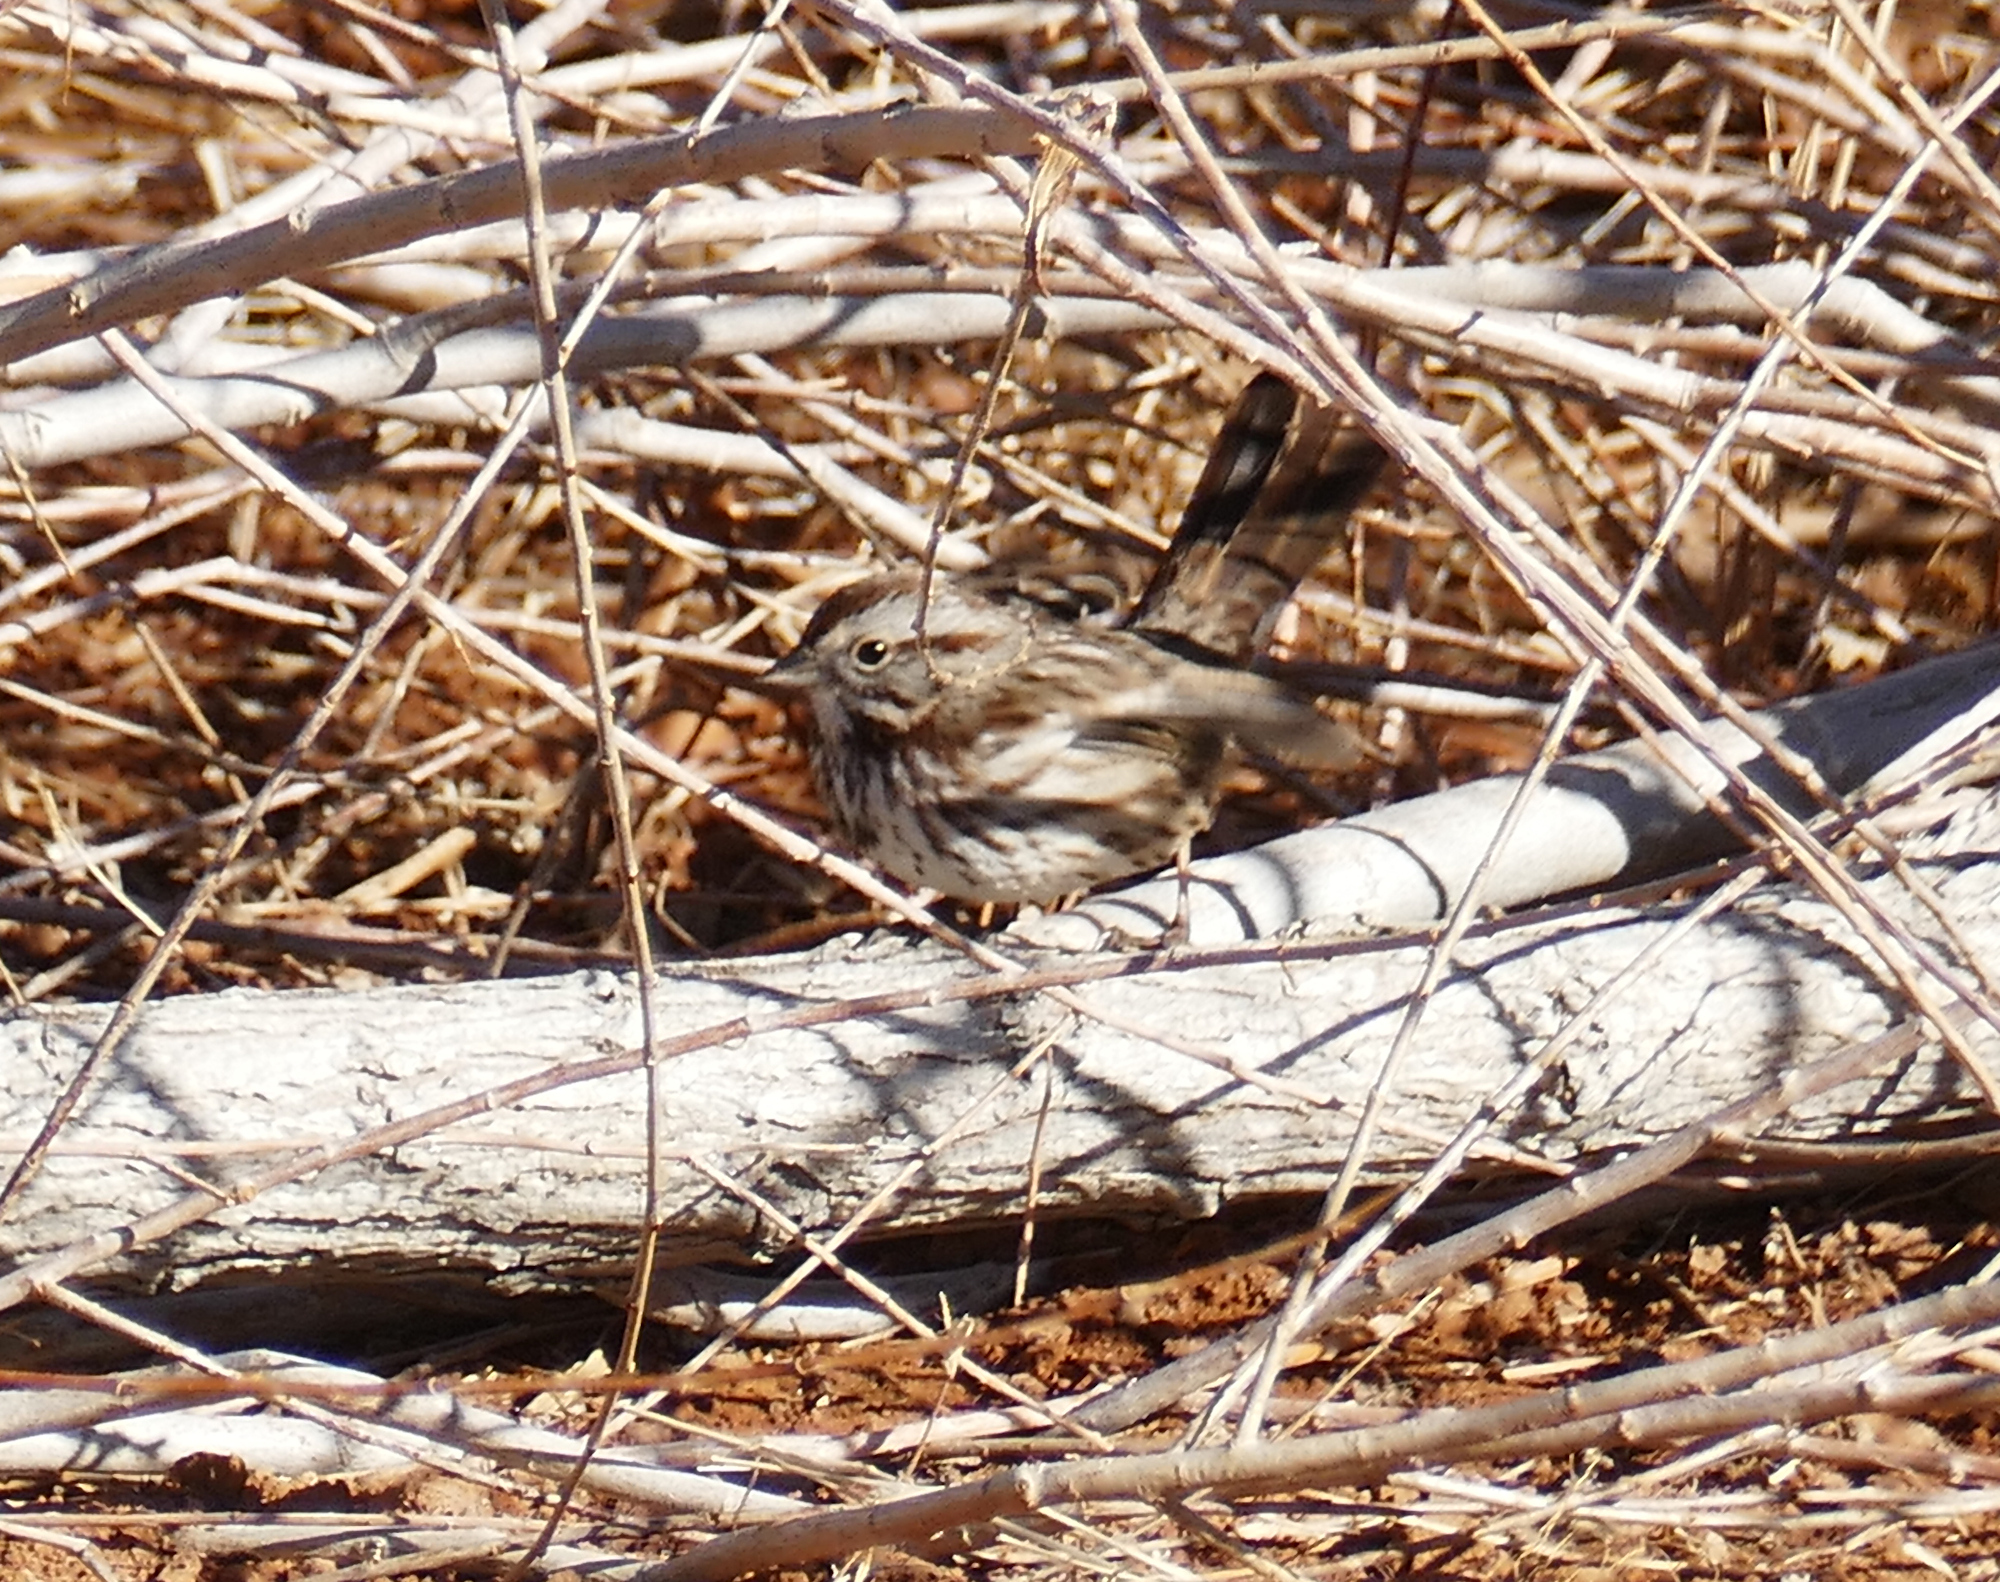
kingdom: Animalia
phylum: Chordata
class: Aves
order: Passeriformes
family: Passerellidae
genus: Melospiza
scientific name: Melospiza melodia
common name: Song sparrow
